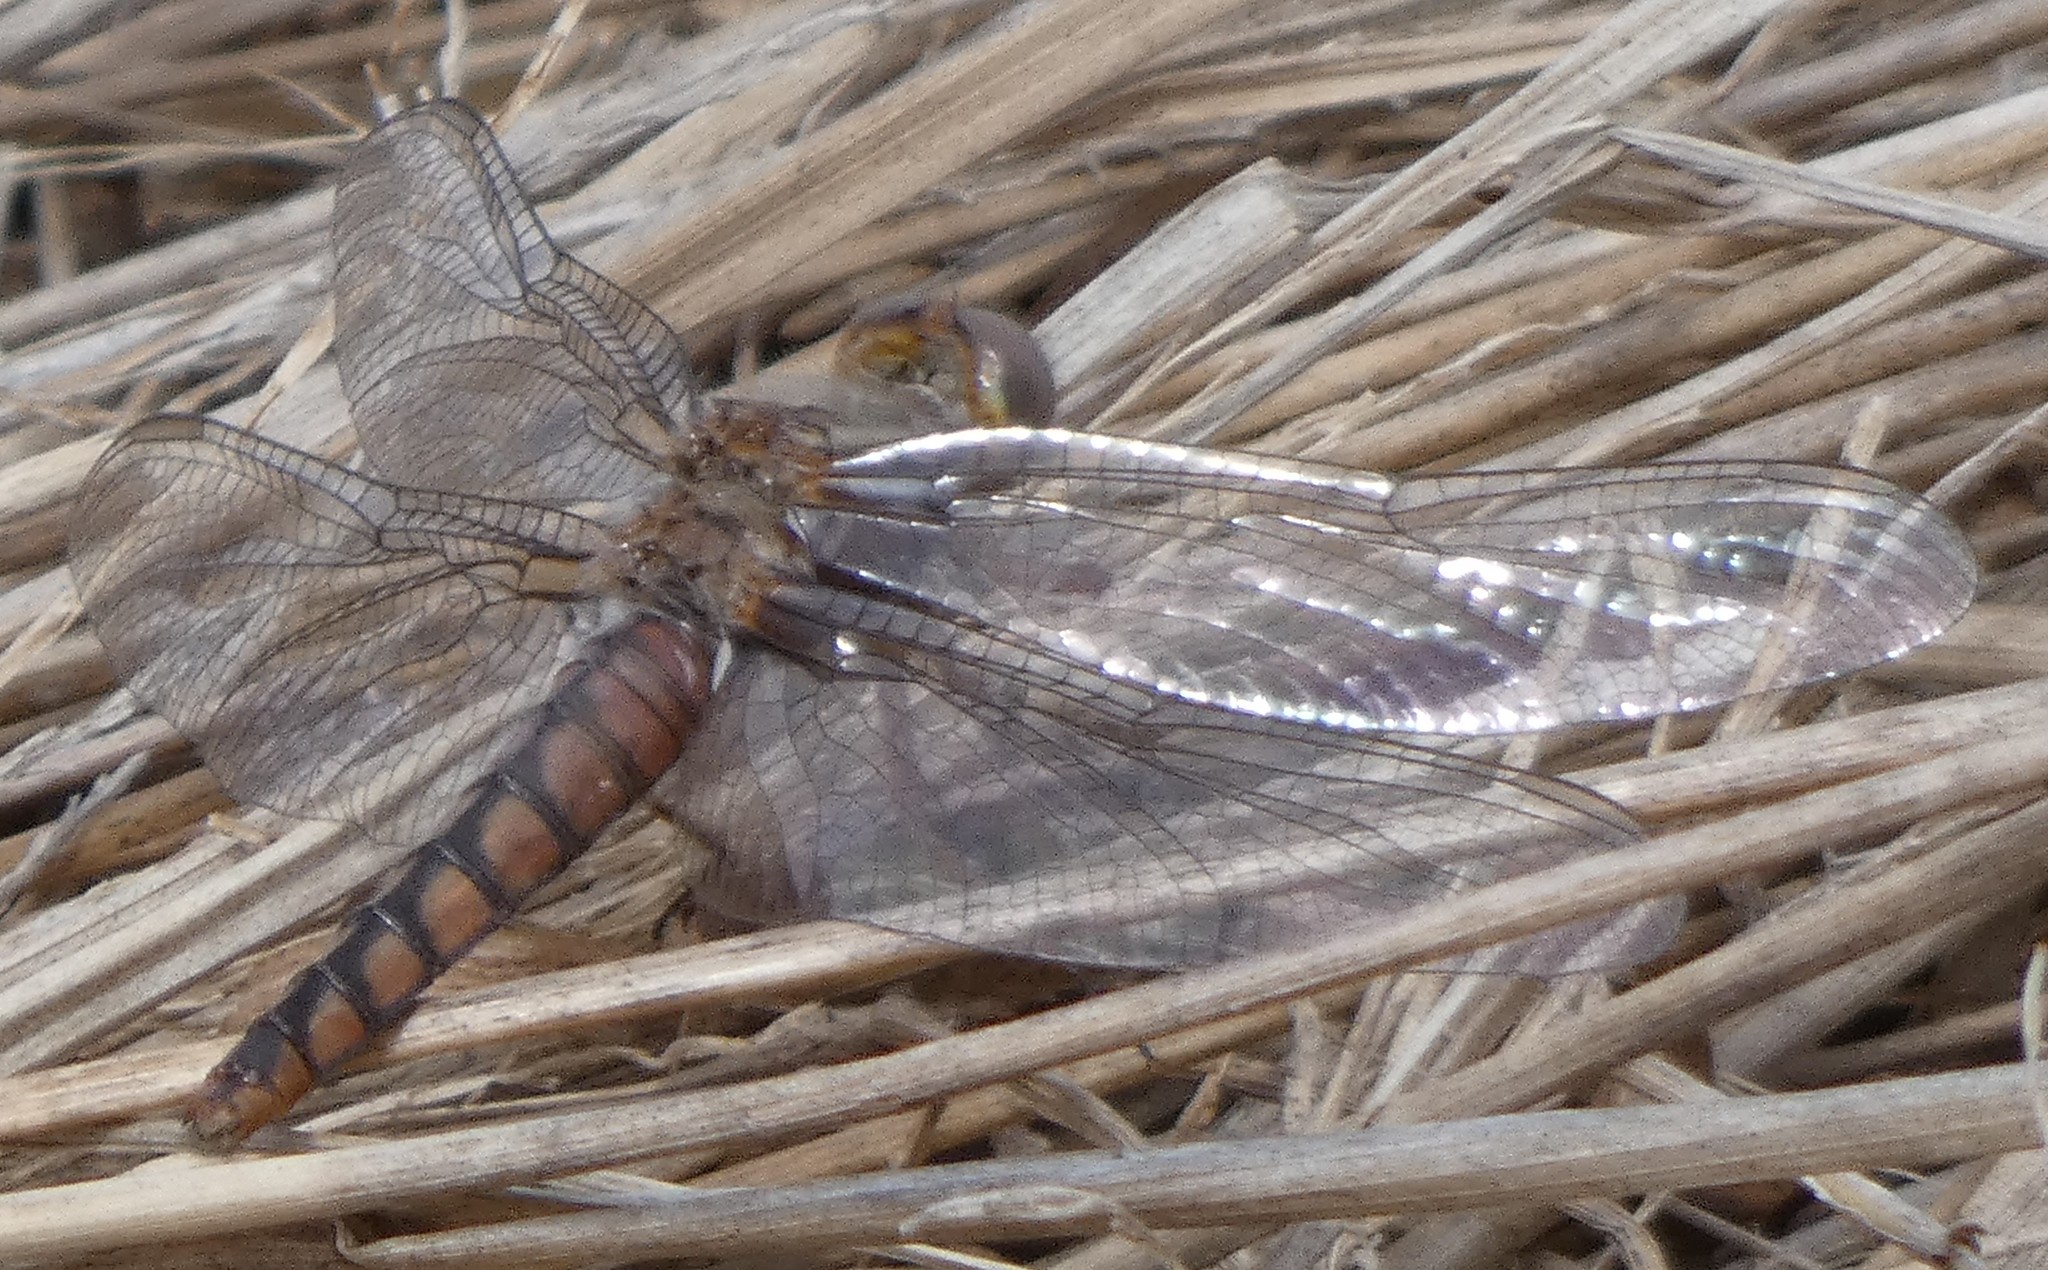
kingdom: Animalia
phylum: Arthropoda
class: Insecta
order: Odonata
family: Libellulidae
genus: Ladona
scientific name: Ladona deplanata
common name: Blue corporal
